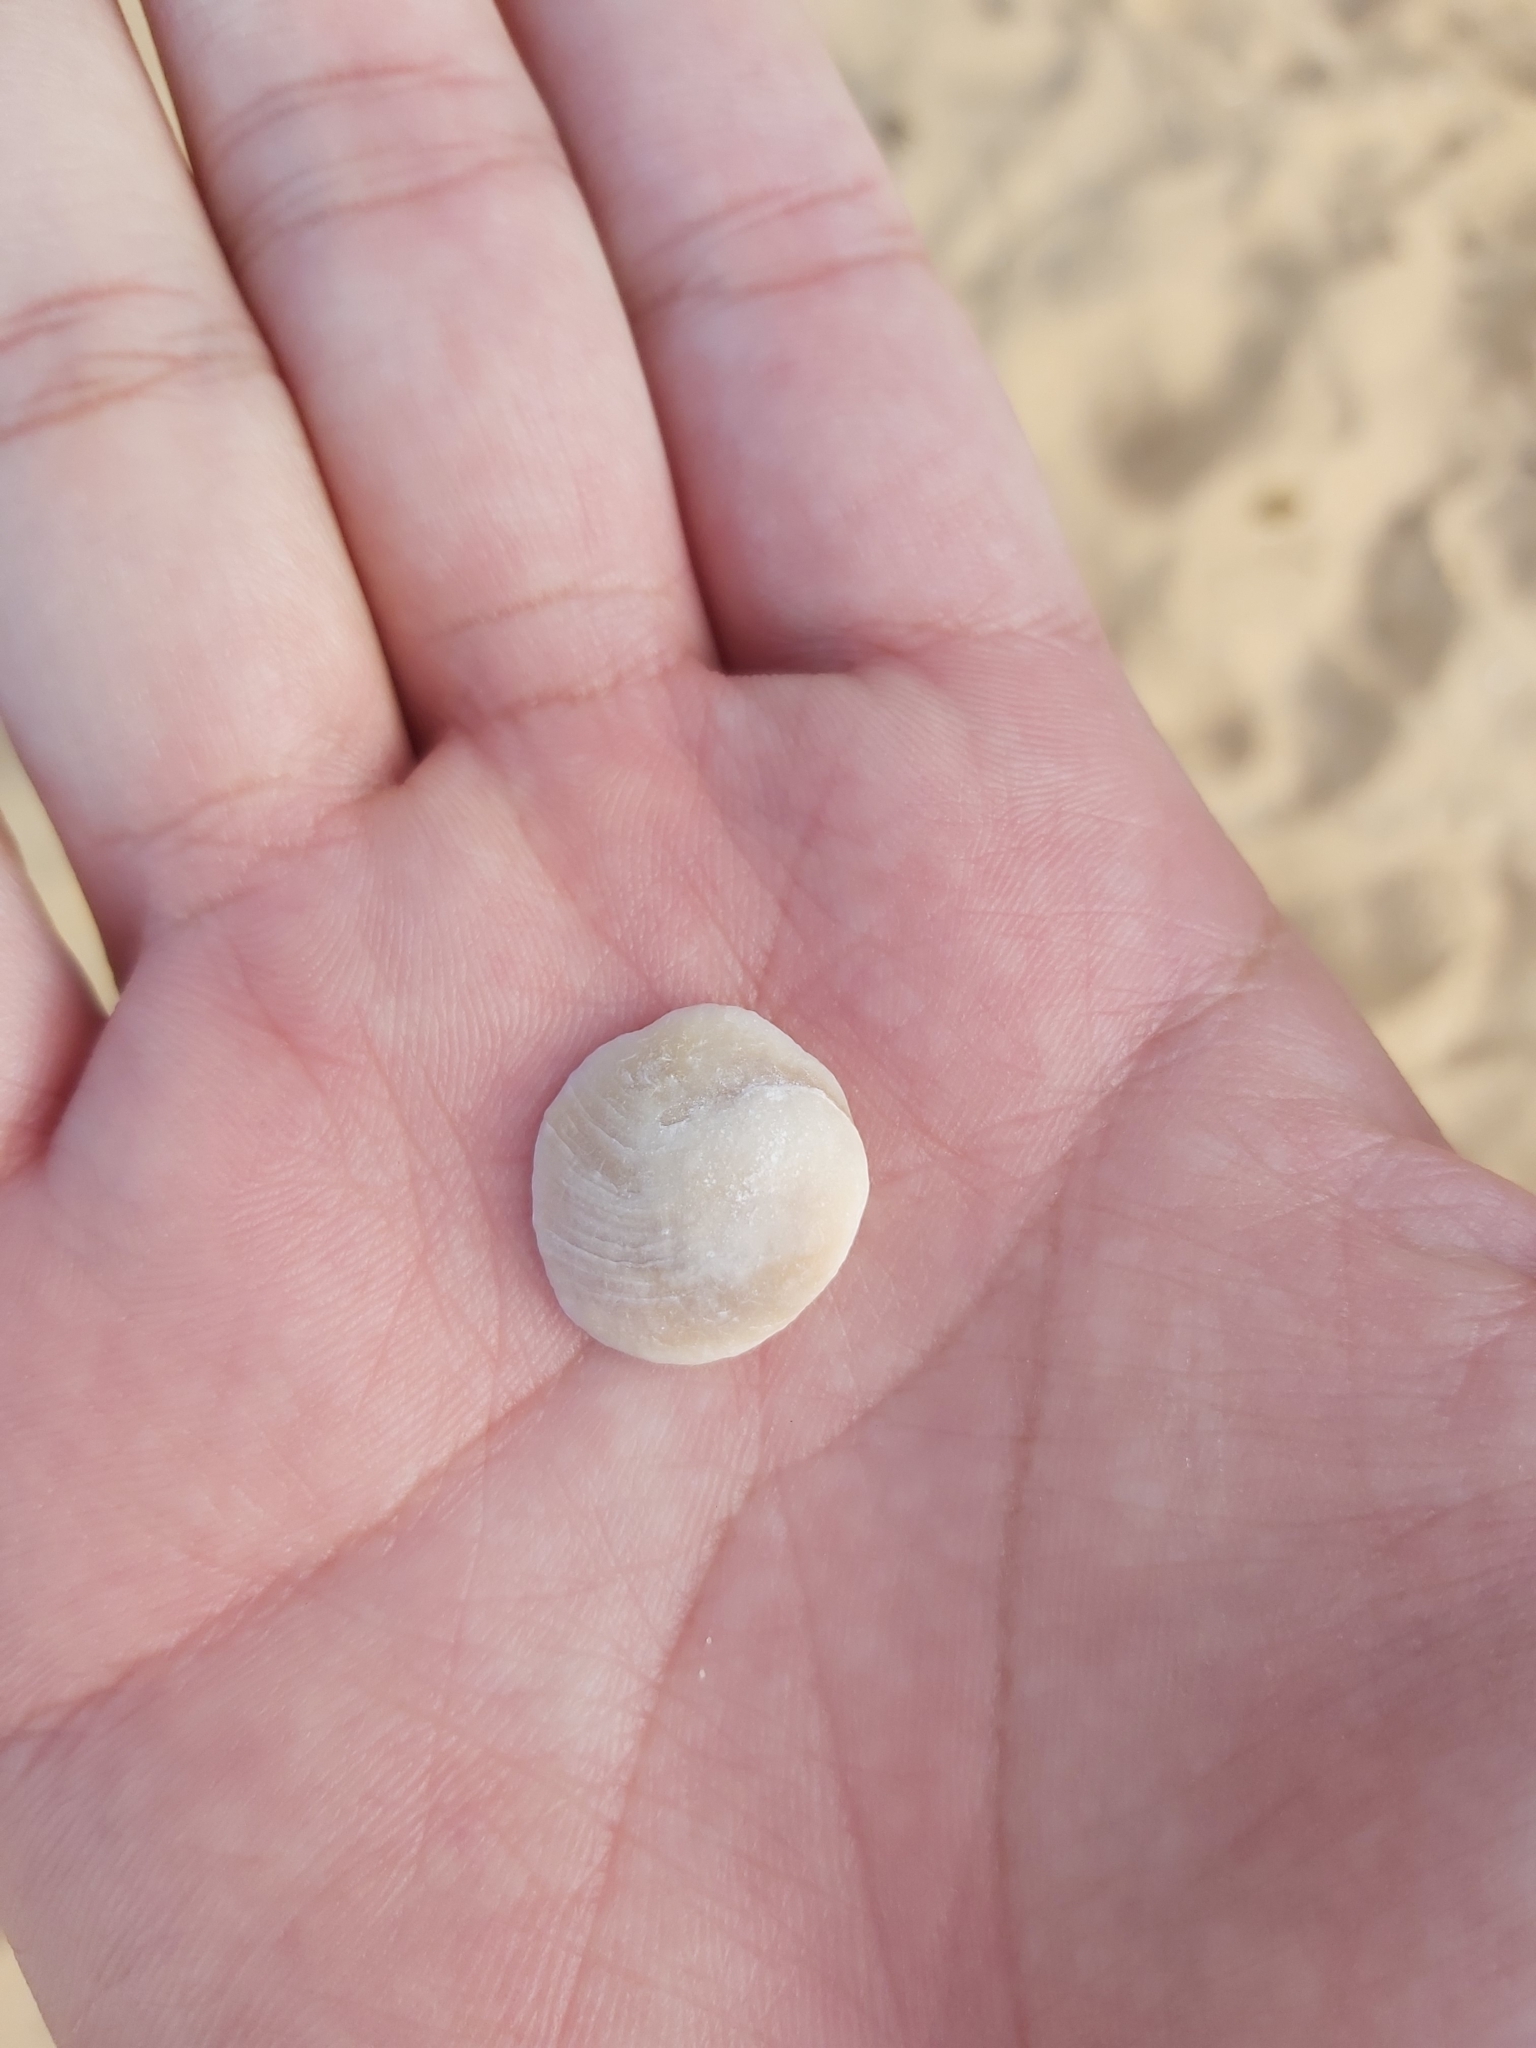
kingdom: Animalia
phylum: Mollusca
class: Gastropoda
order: Trochida
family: Turbinidae
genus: Lunella
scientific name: Lunella undulata
